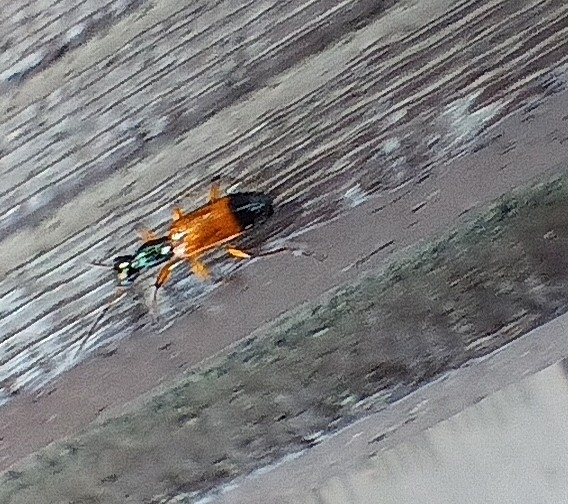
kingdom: Animalia
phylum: Arthropoda
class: Insecta
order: Coleoptera
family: Carabidae
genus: Odacantha
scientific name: Odacantha melanura
